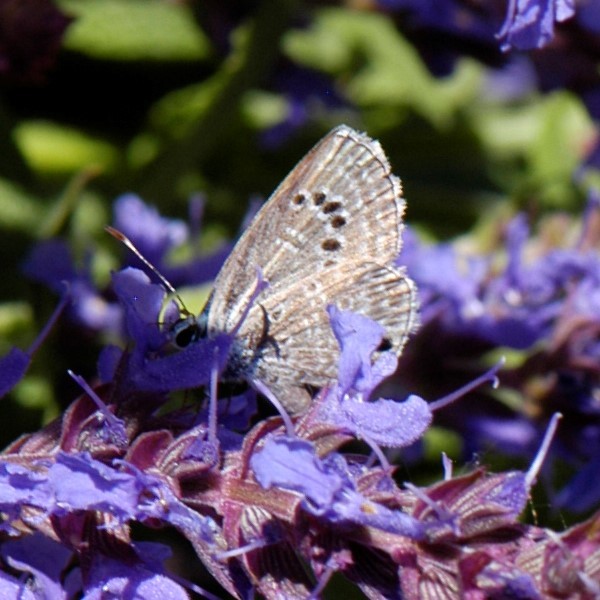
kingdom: Animalia
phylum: Arthropoda
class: Insecta
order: Lepidoptera
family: Lycaenidae
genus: Echinargus
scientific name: Echinargus isola
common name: Reakirt's blue
